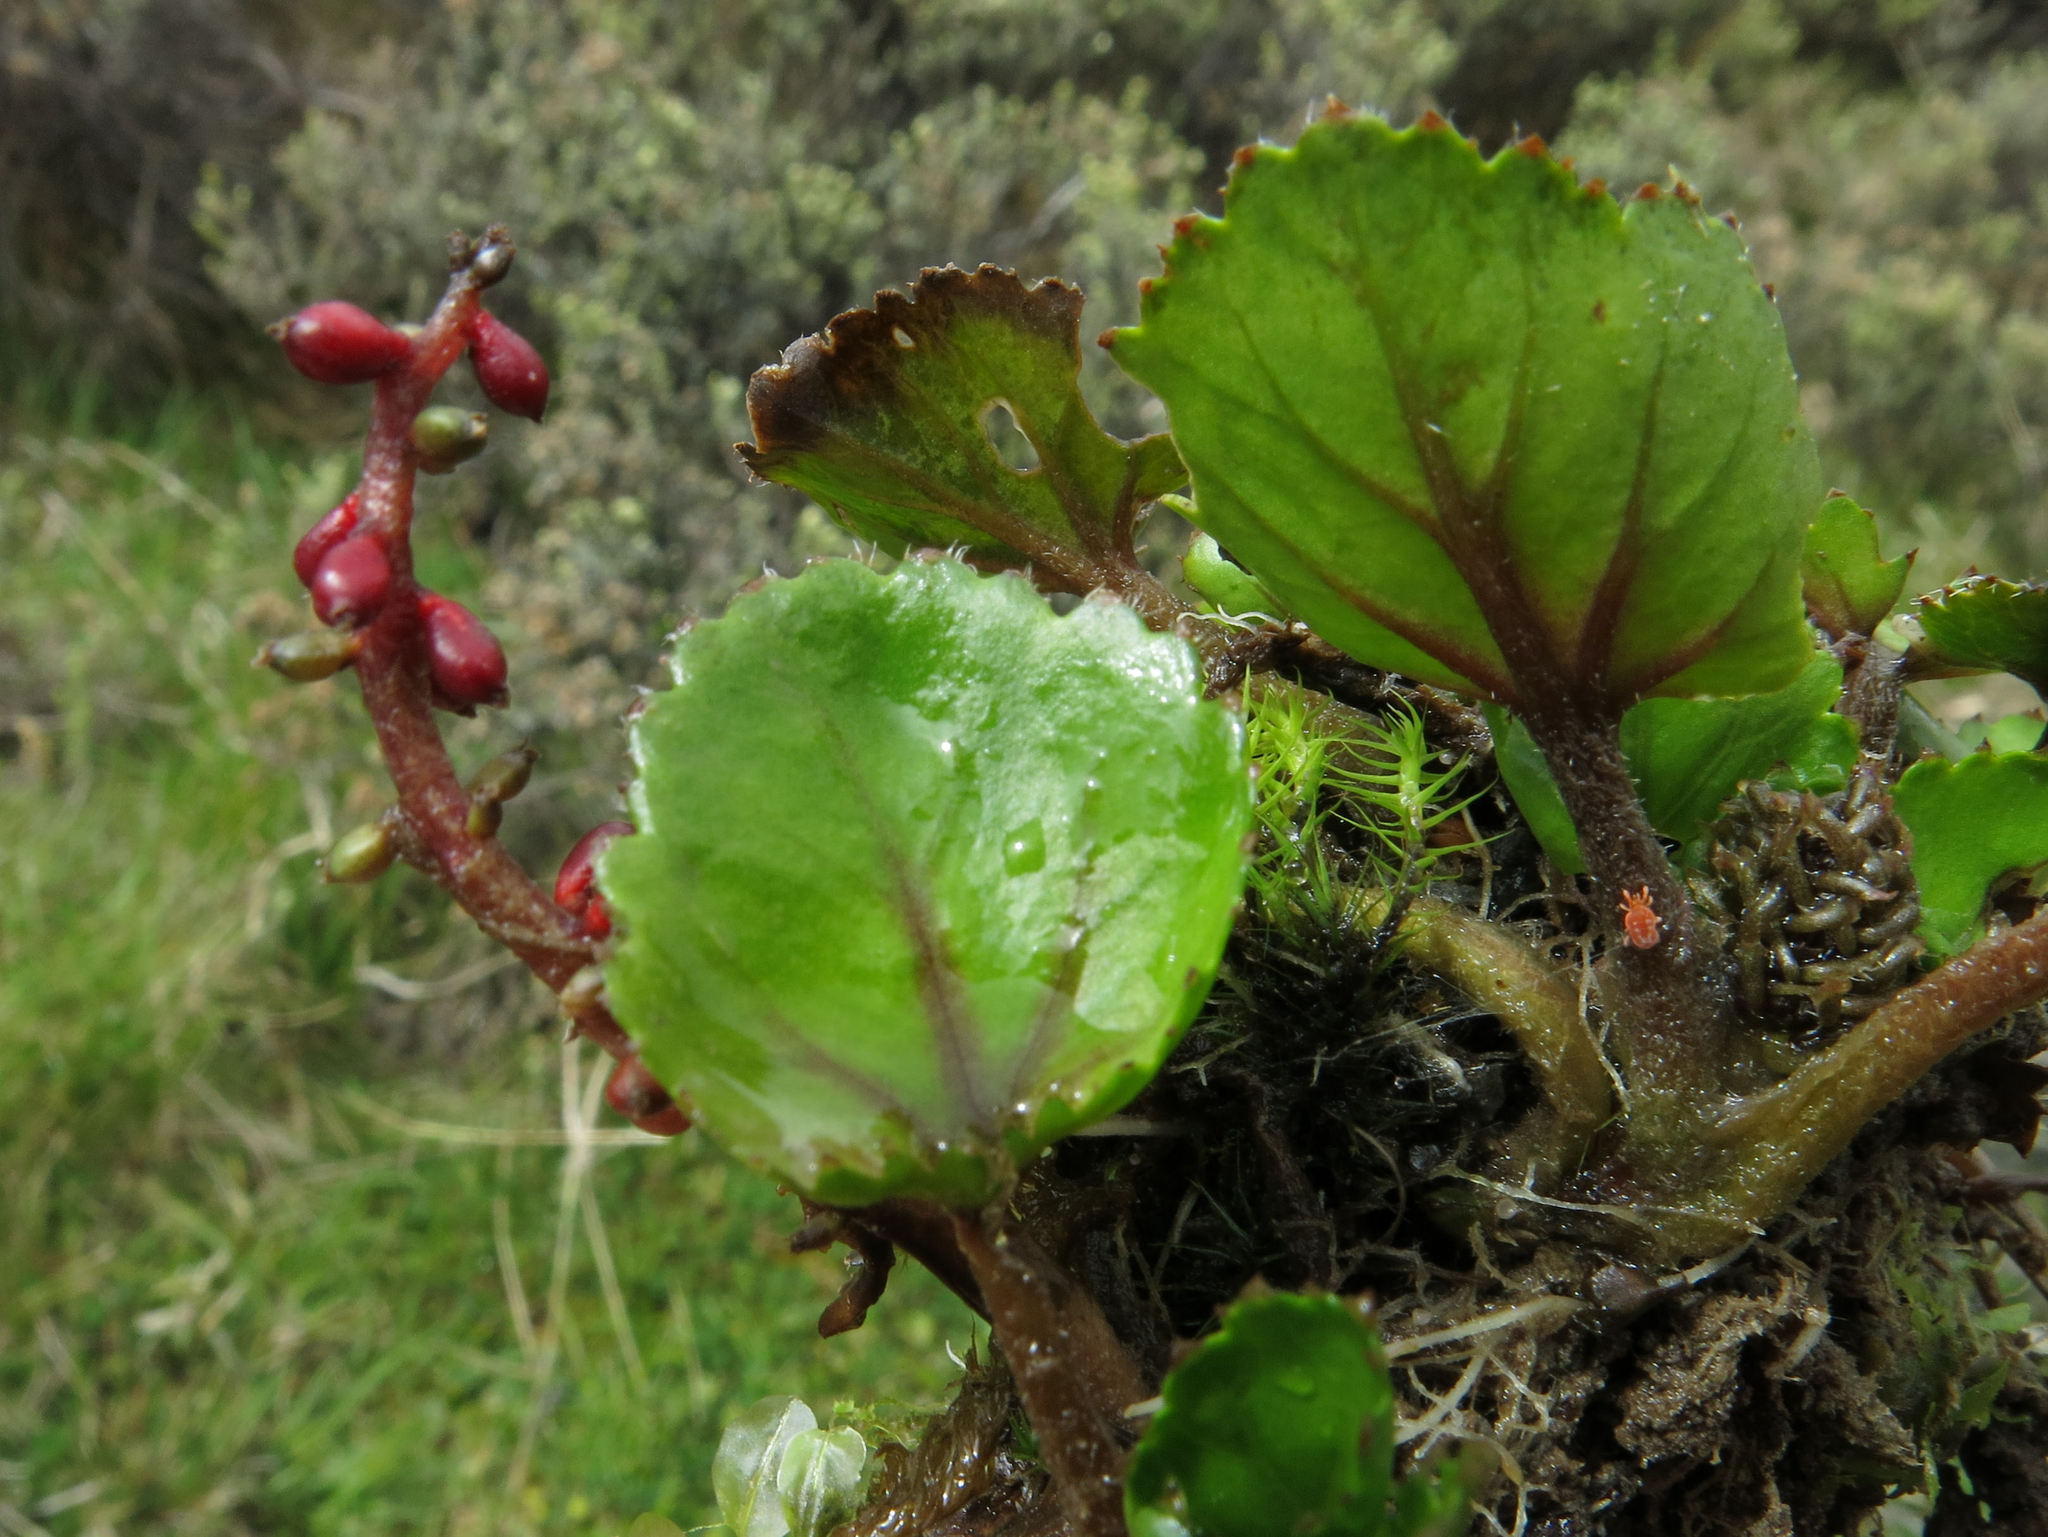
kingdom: Plantae
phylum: Tracheophyta
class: Magnoliopsida
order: Gunnerales
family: Gunneraceae
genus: Gunnera
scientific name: Gunnera densiflora
